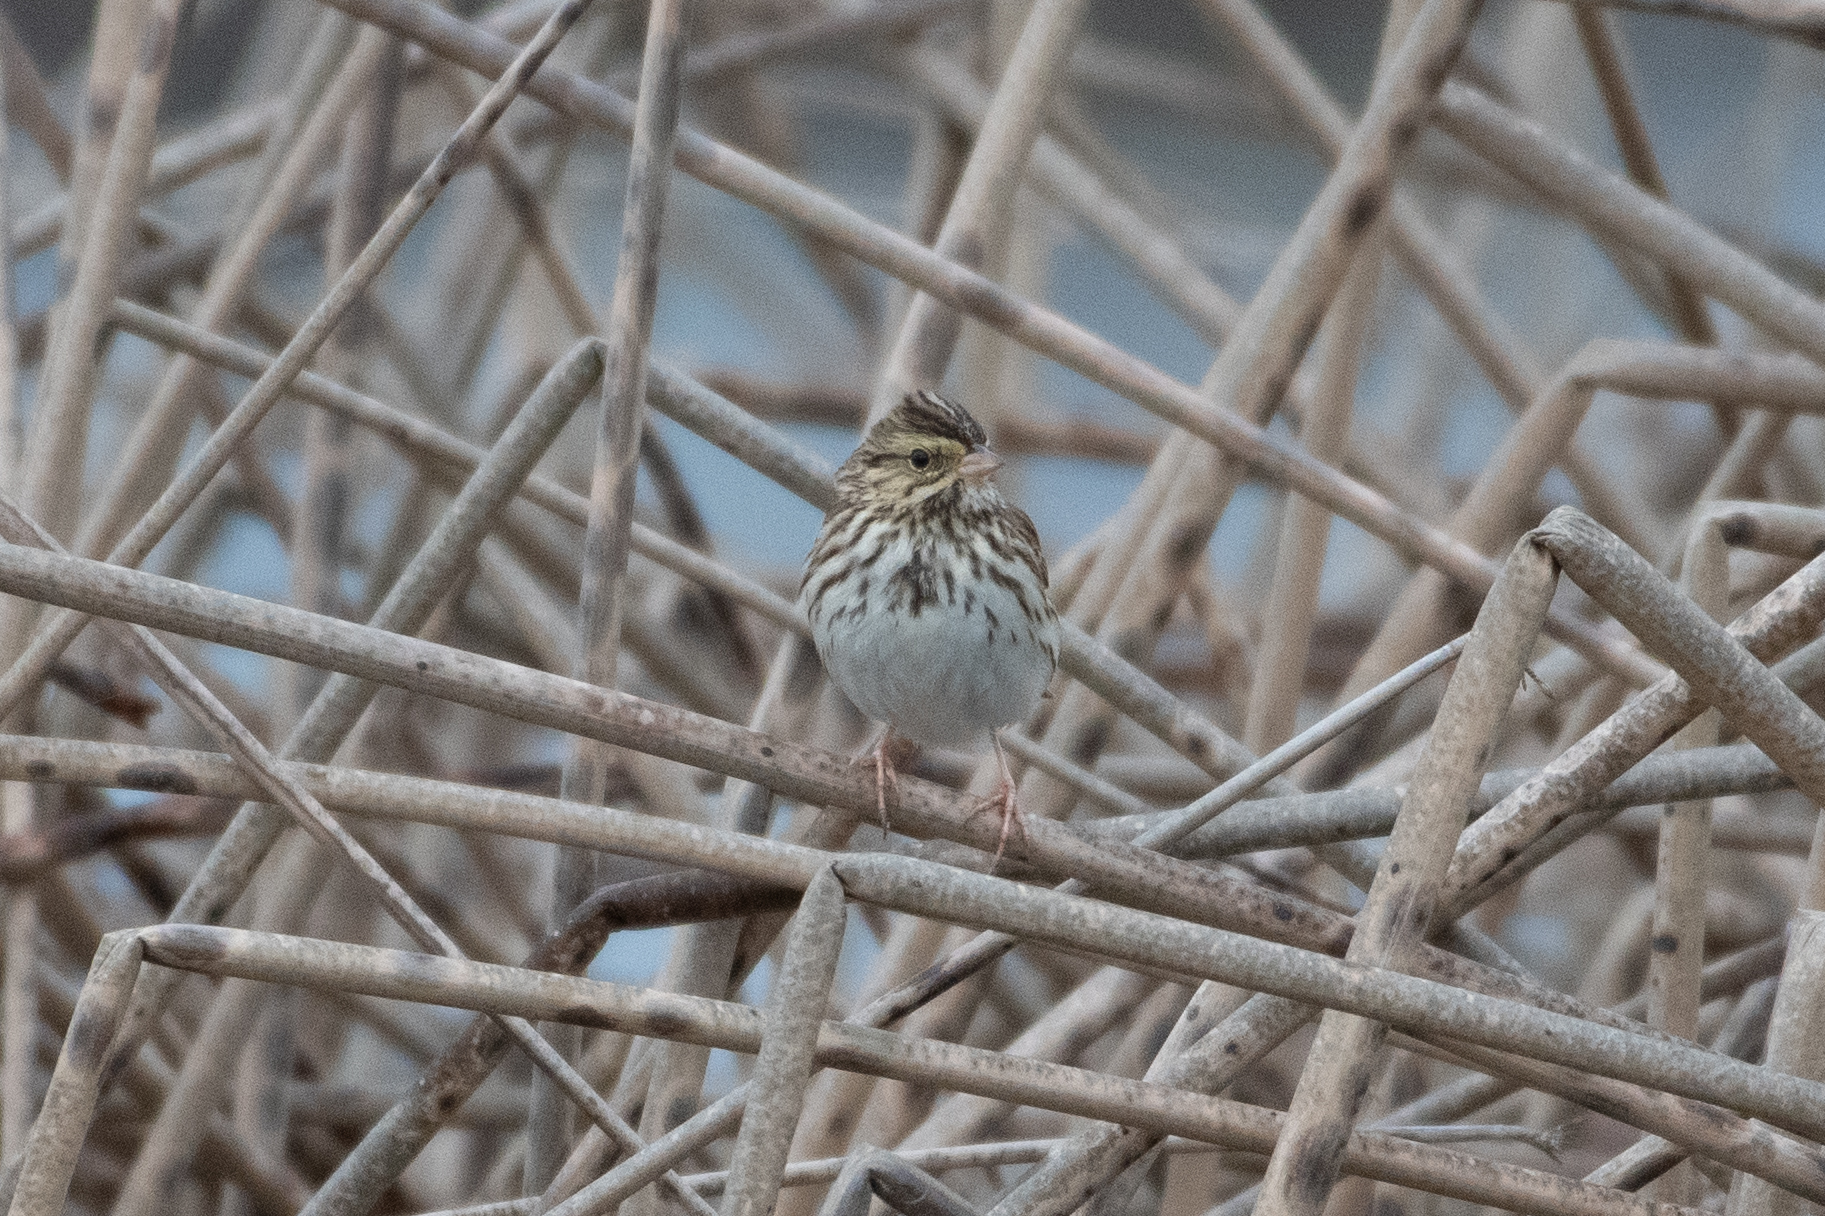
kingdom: Animalia
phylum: Chordata
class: Aves
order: Passeriformes
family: Passerellidae
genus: Passerculus
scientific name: Passerculus sandwichensis
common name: Savannah sparrow
